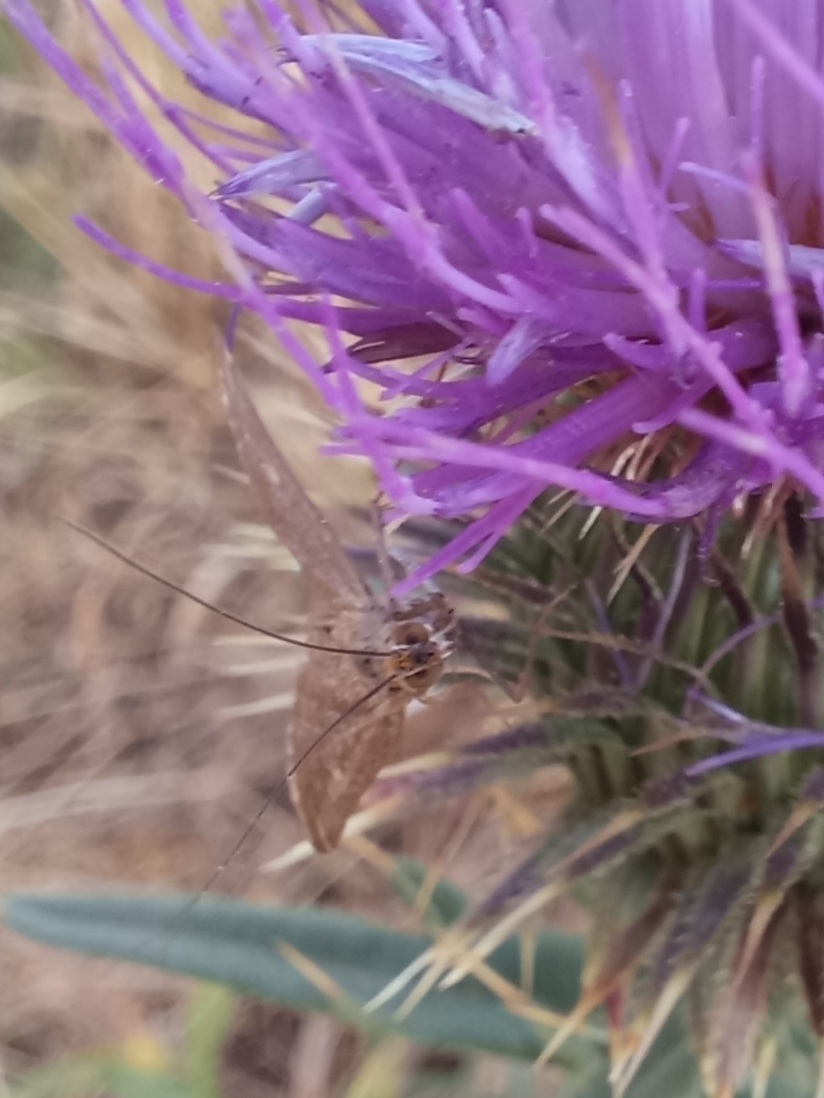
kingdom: Animalia
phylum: Arthropoda
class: Insecta
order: Lepidoptera
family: Crambidae
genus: Loxostege
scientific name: Loxostege sticticalis
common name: Crambid moth
